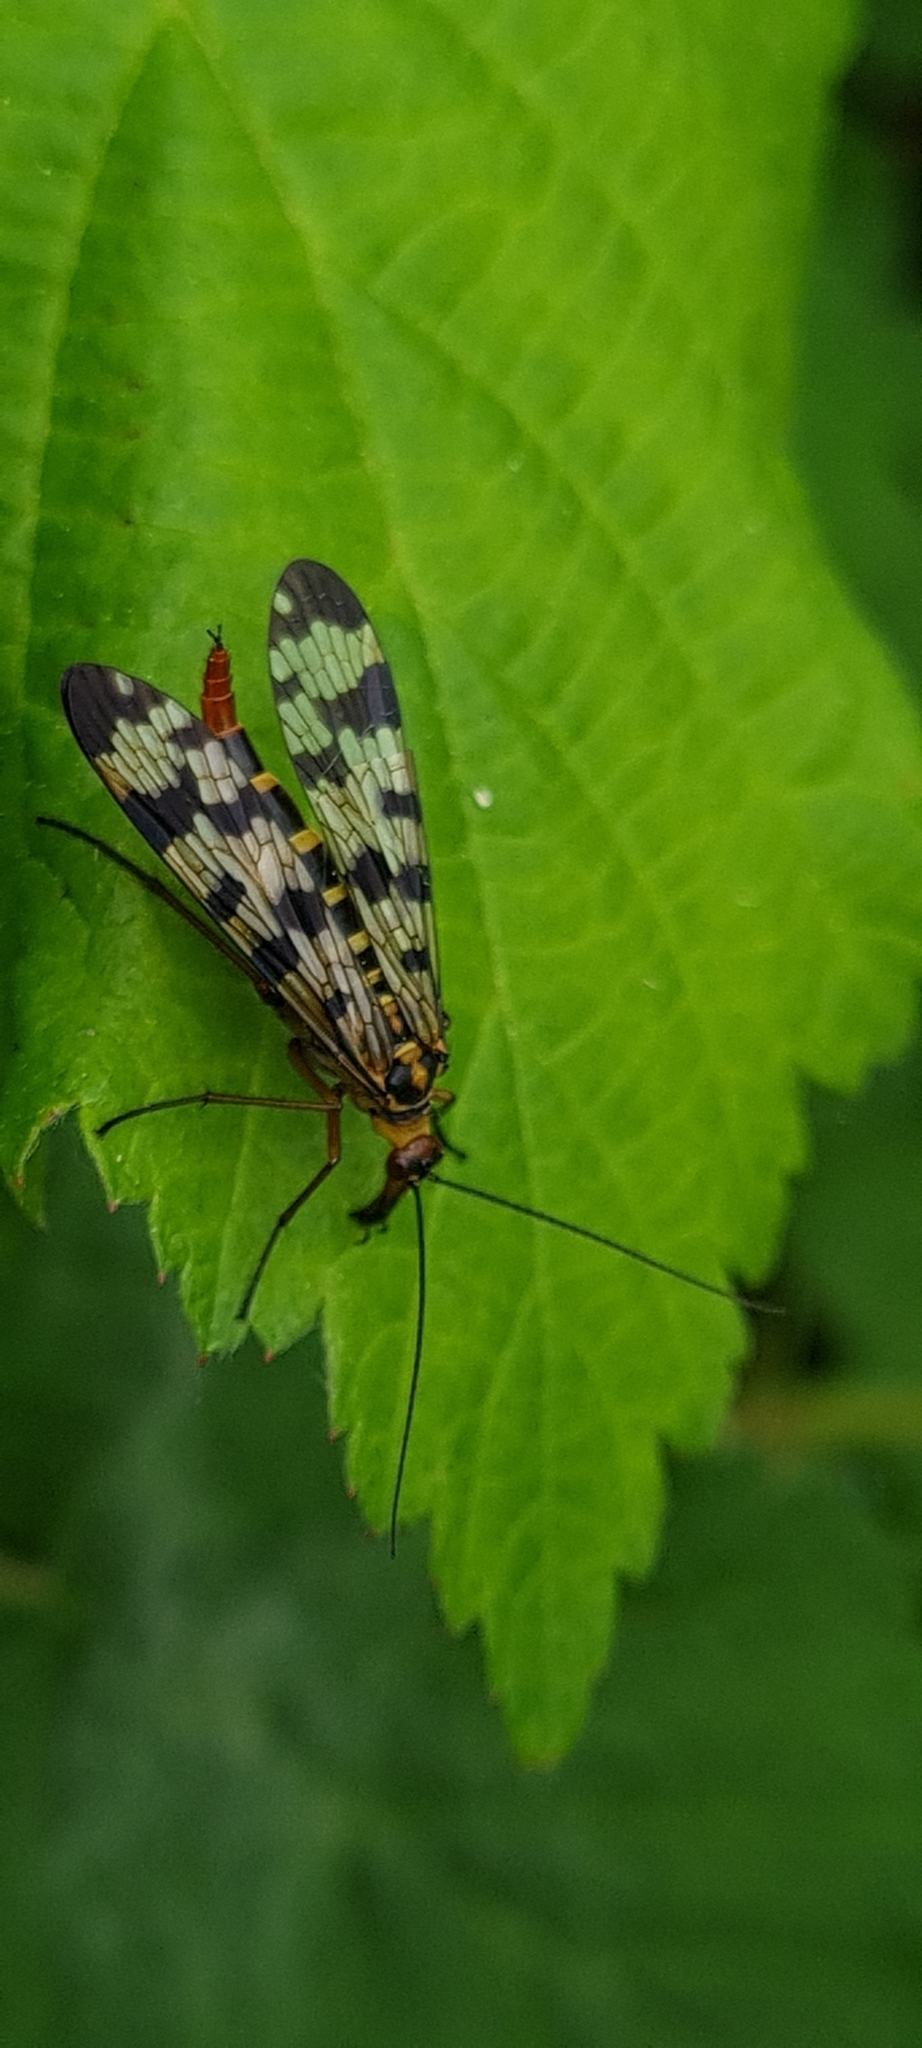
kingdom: Animalia
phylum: Arthropoda
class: Insecta
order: Mecoptera
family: Panorpidae
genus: Panorpa
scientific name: Panorpa meridionalis
